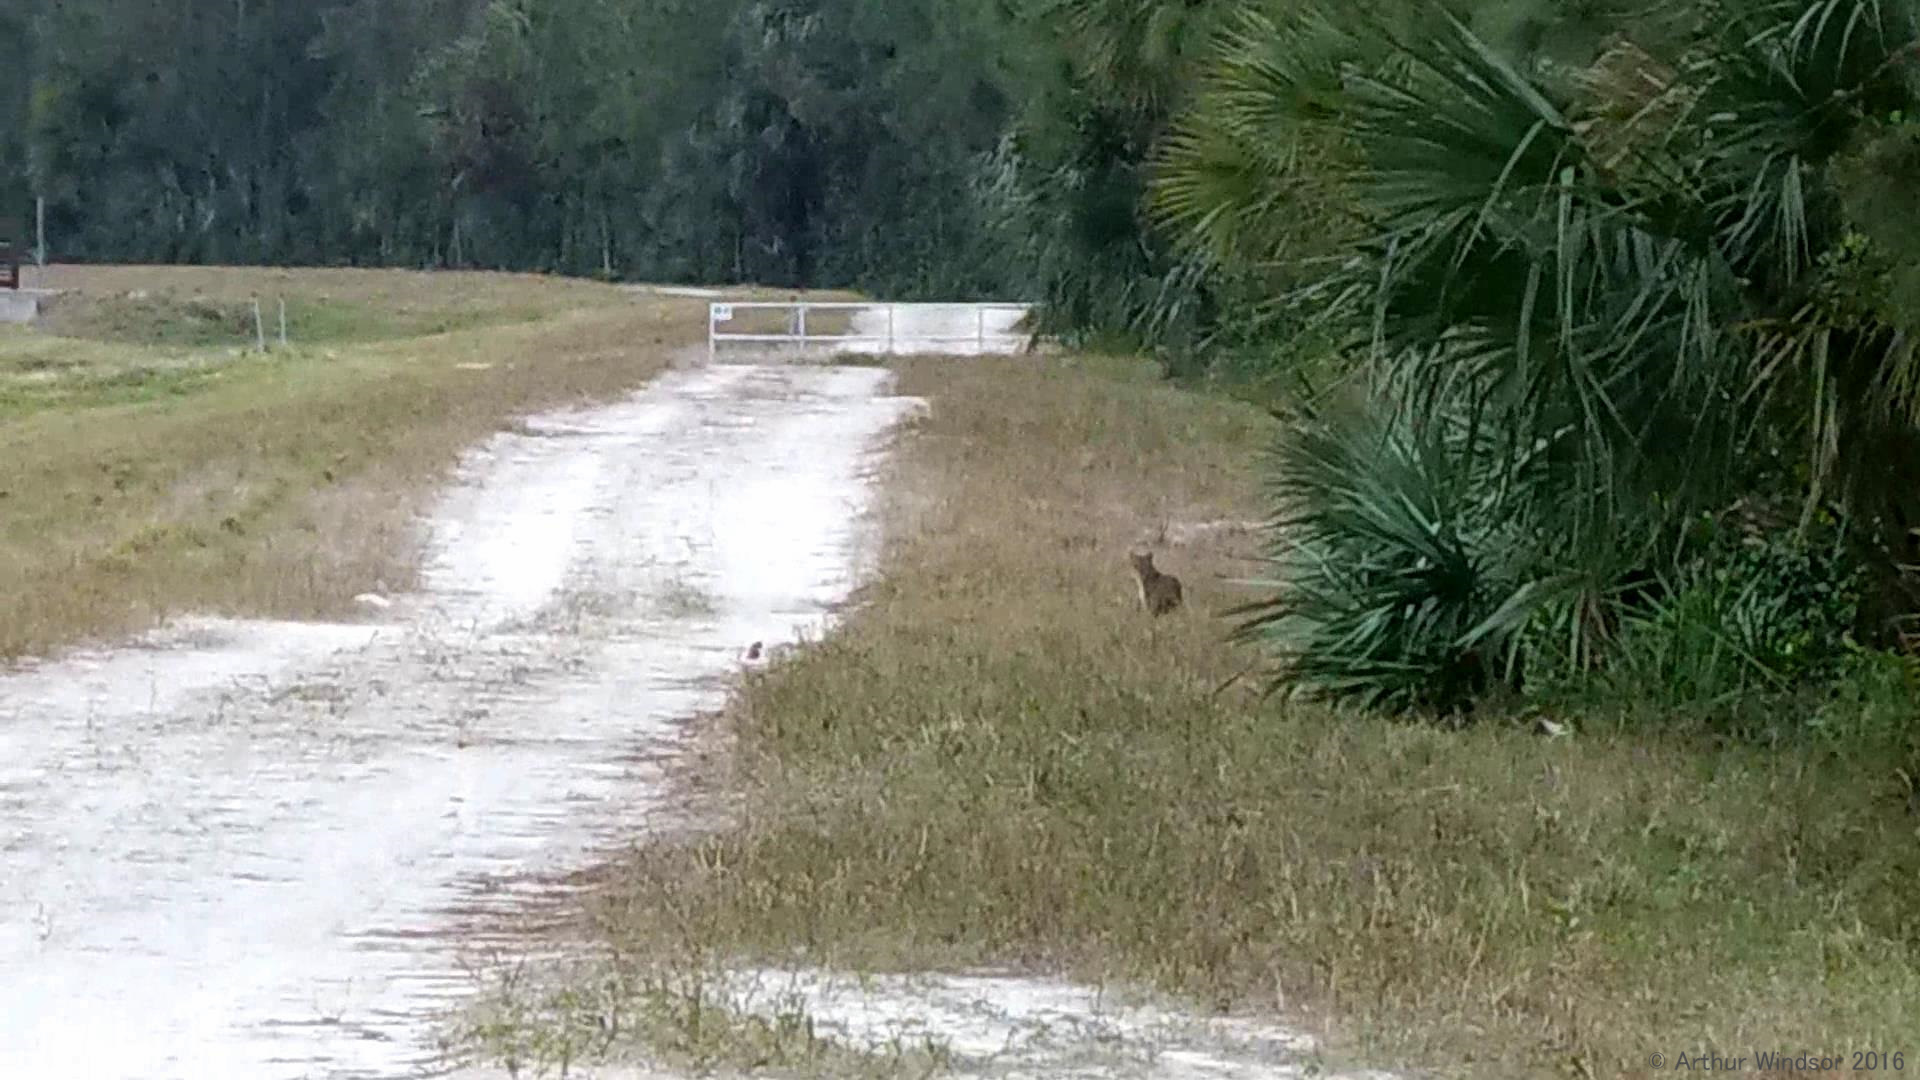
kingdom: Animalia
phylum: Chordata
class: Mammalia
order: Carnivora
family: Felidae
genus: Lynx
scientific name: Lynx rufus
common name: Bobcat
